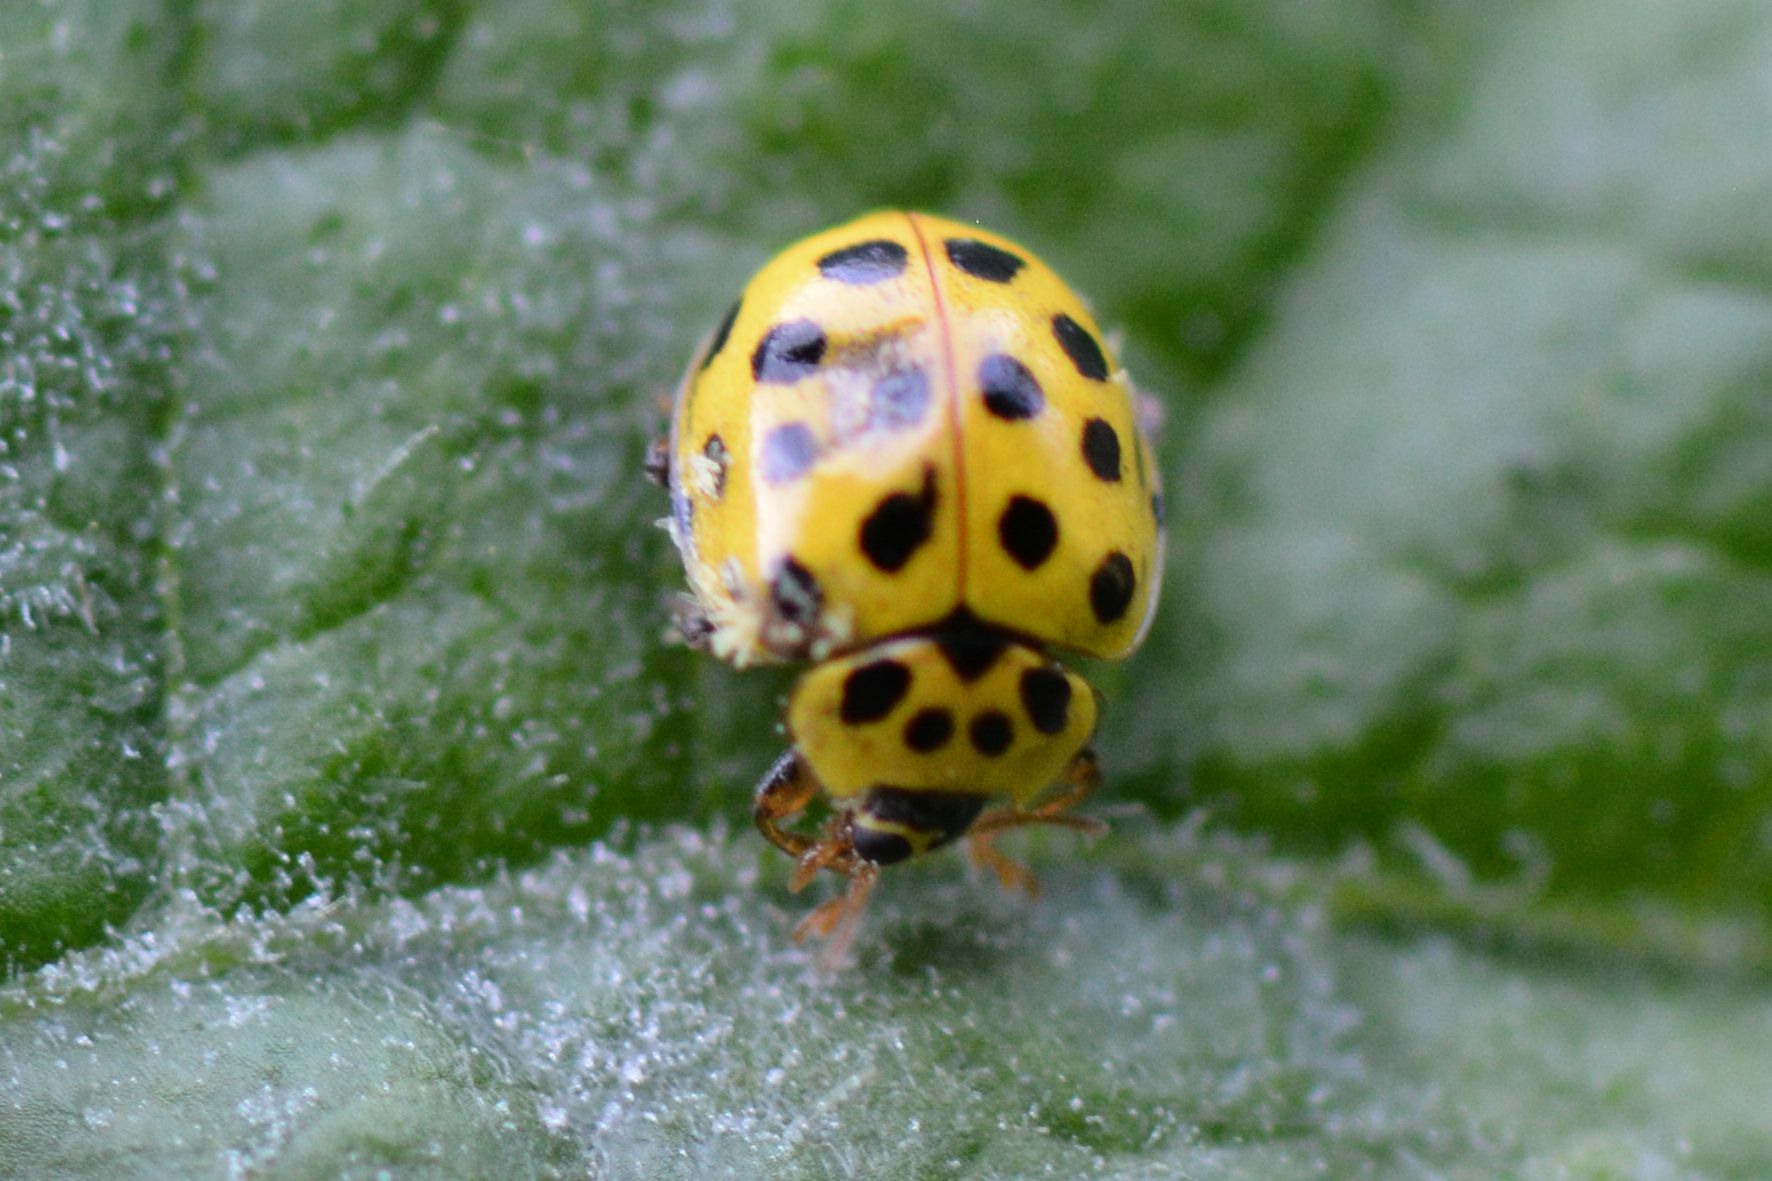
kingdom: Animalia
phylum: Arthropoda
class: Insecta
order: Coleoptera
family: Coccinellidae
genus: Psyllobora
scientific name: Psyllobora vigintiduopunctata
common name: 22-spot ladybird
